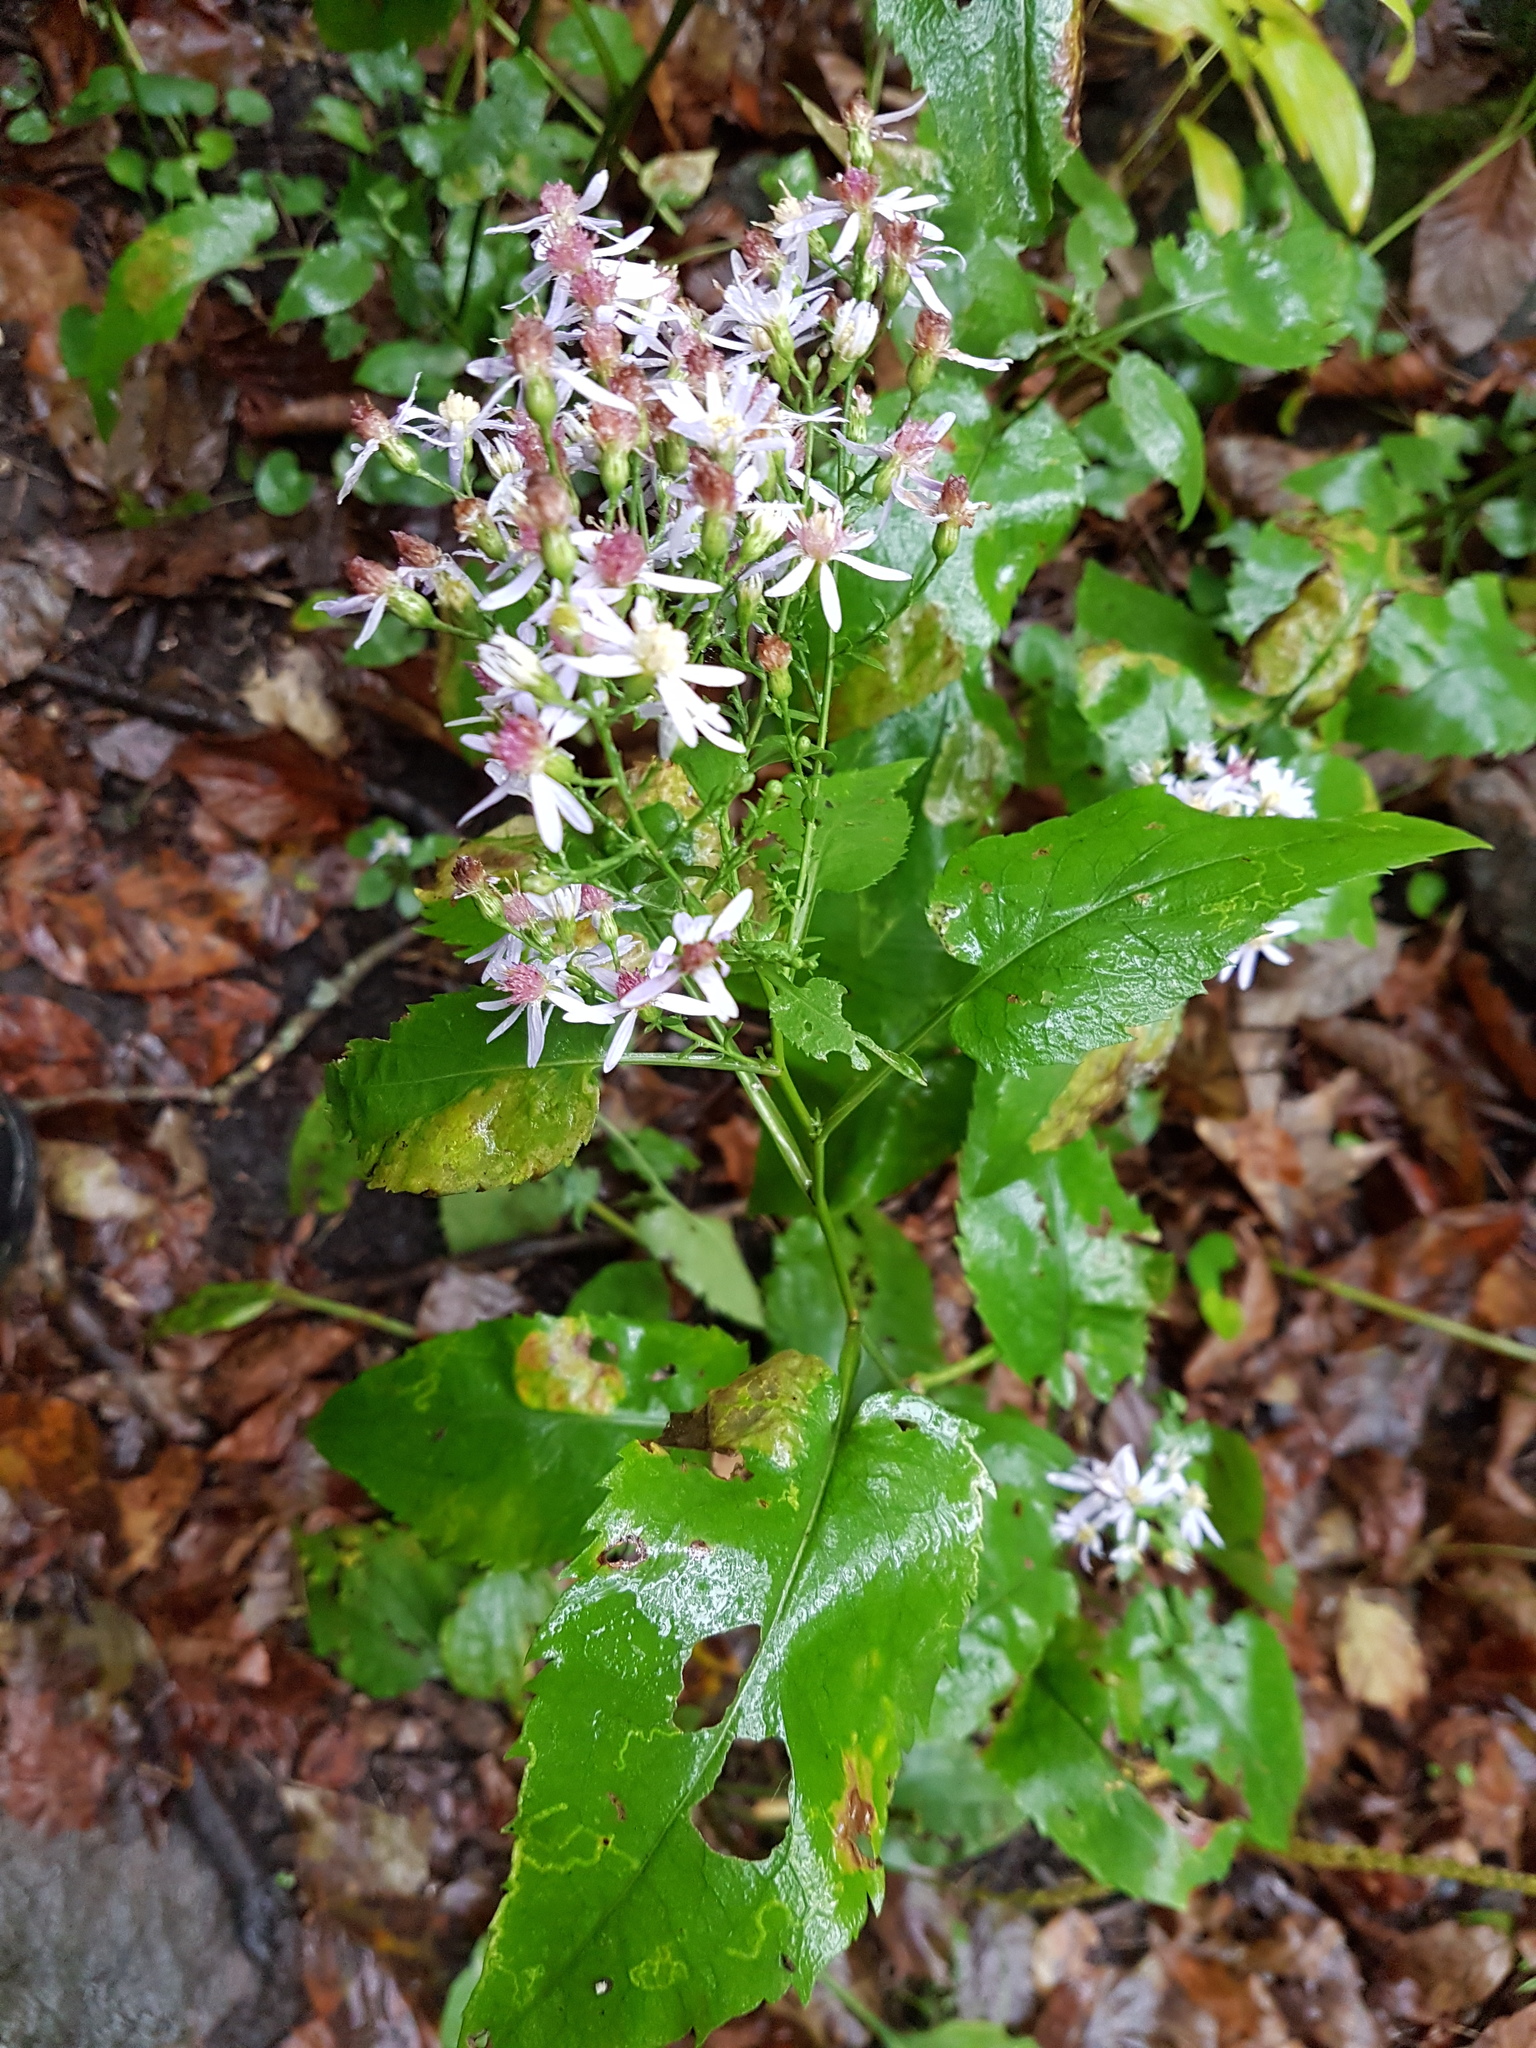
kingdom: Plantae
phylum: Tracheophyta
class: Magnoliopsida
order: Asterales
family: Asteraceae
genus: Symphyotrichum
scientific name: Symphyotrichum cordifolium
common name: Beeweed
